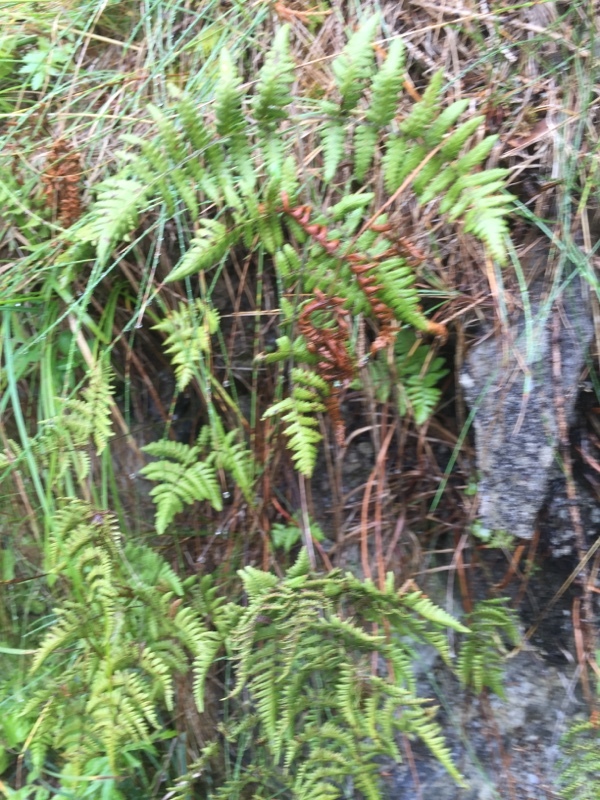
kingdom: Plantae
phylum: Tracheophyta
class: Polypodiopsida
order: Polypodiales
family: Cystopteridaceae
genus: Gymnocarpium
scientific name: Gymnocarpium robertianum
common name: Limestone fern
